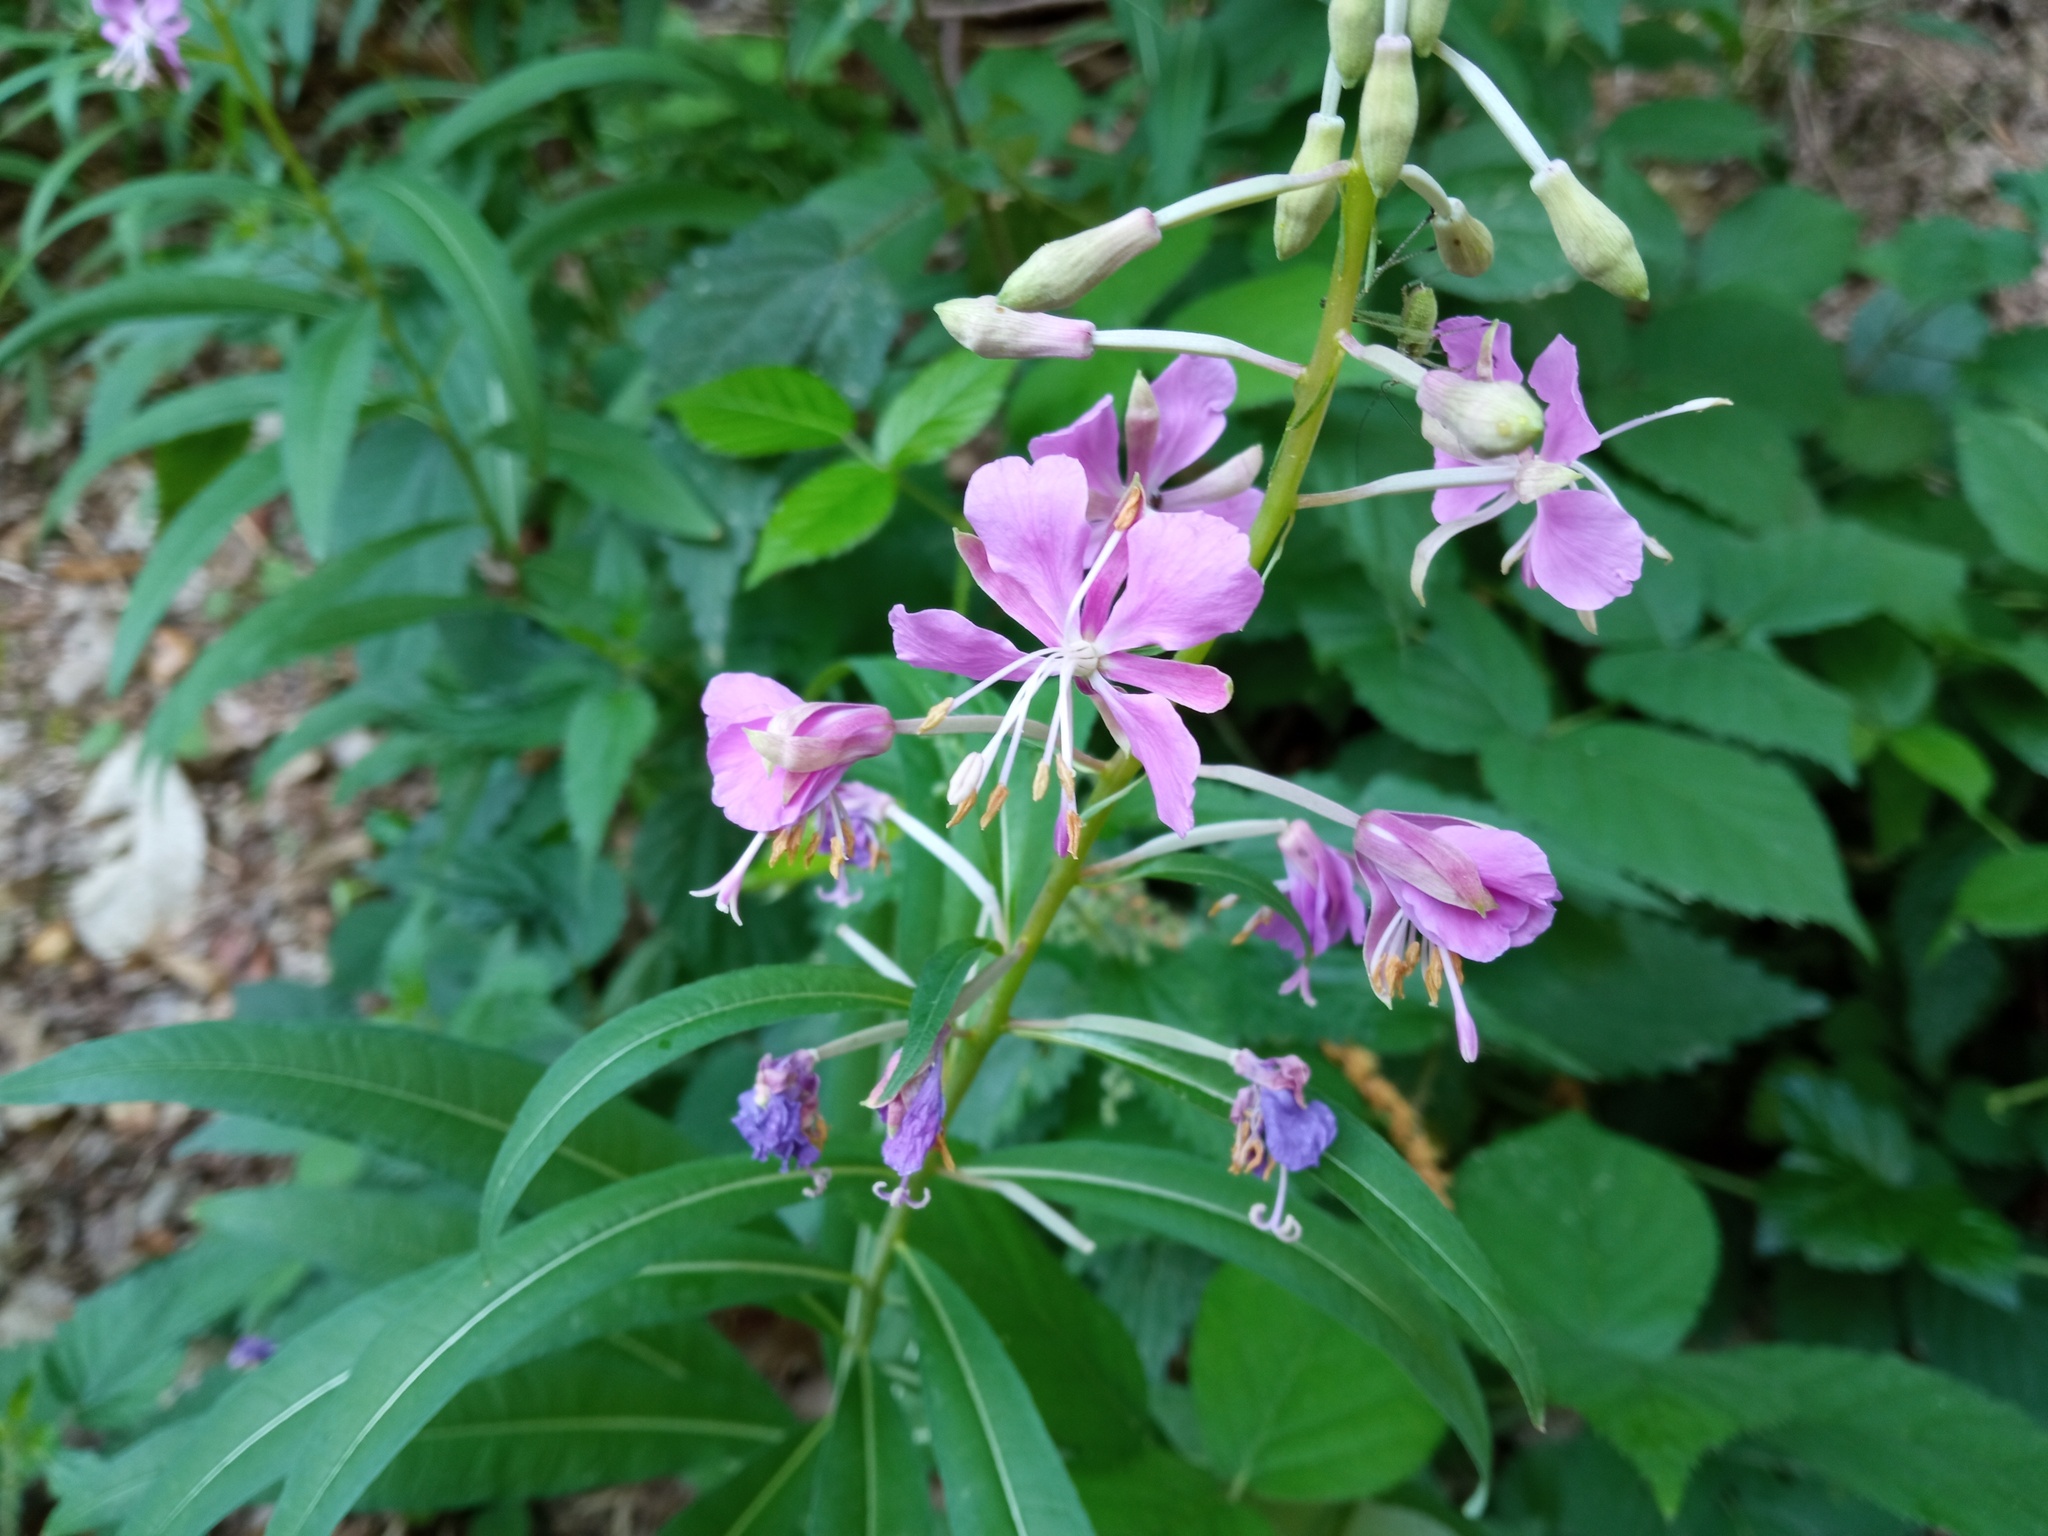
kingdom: Plantae
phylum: Tracheophyta
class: Magnoliopsida
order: Myrtales
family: Onagraceae
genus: Chamaenerion
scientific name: Chamaenerion angustifolium
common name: Fireweed
